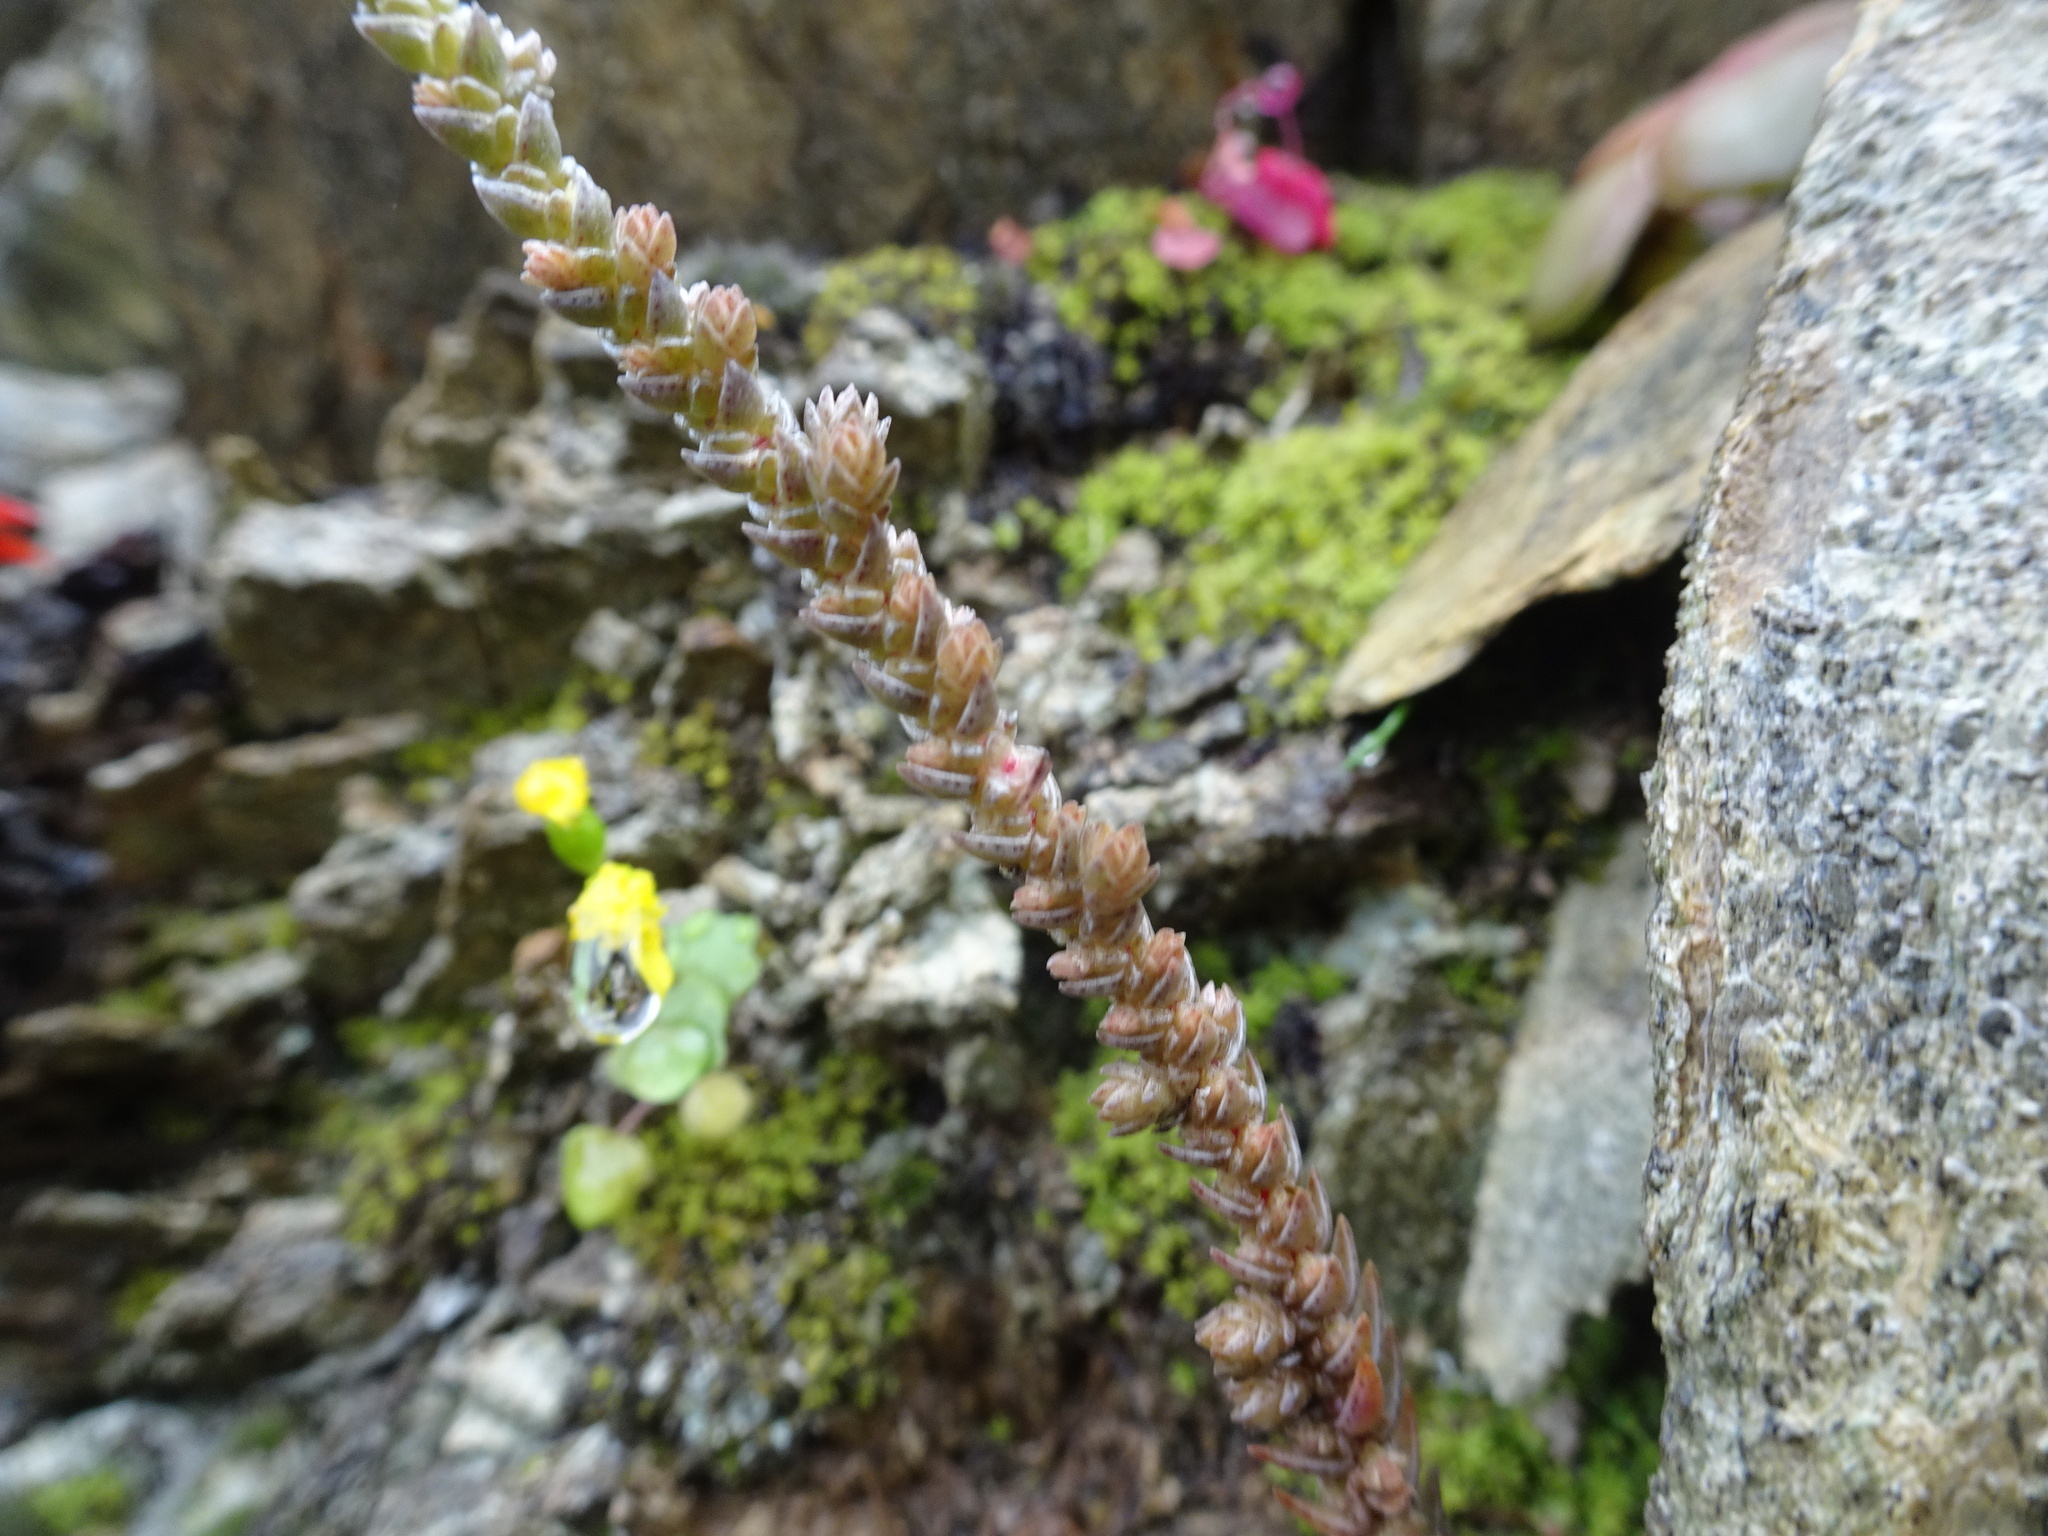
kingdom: Plantae
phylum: Tracheophyta
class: Magnoliopsida
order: Saxifragales
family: Crassulaceae
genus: Crassula
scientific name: Crassula muscosa
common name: Toy-cypress
